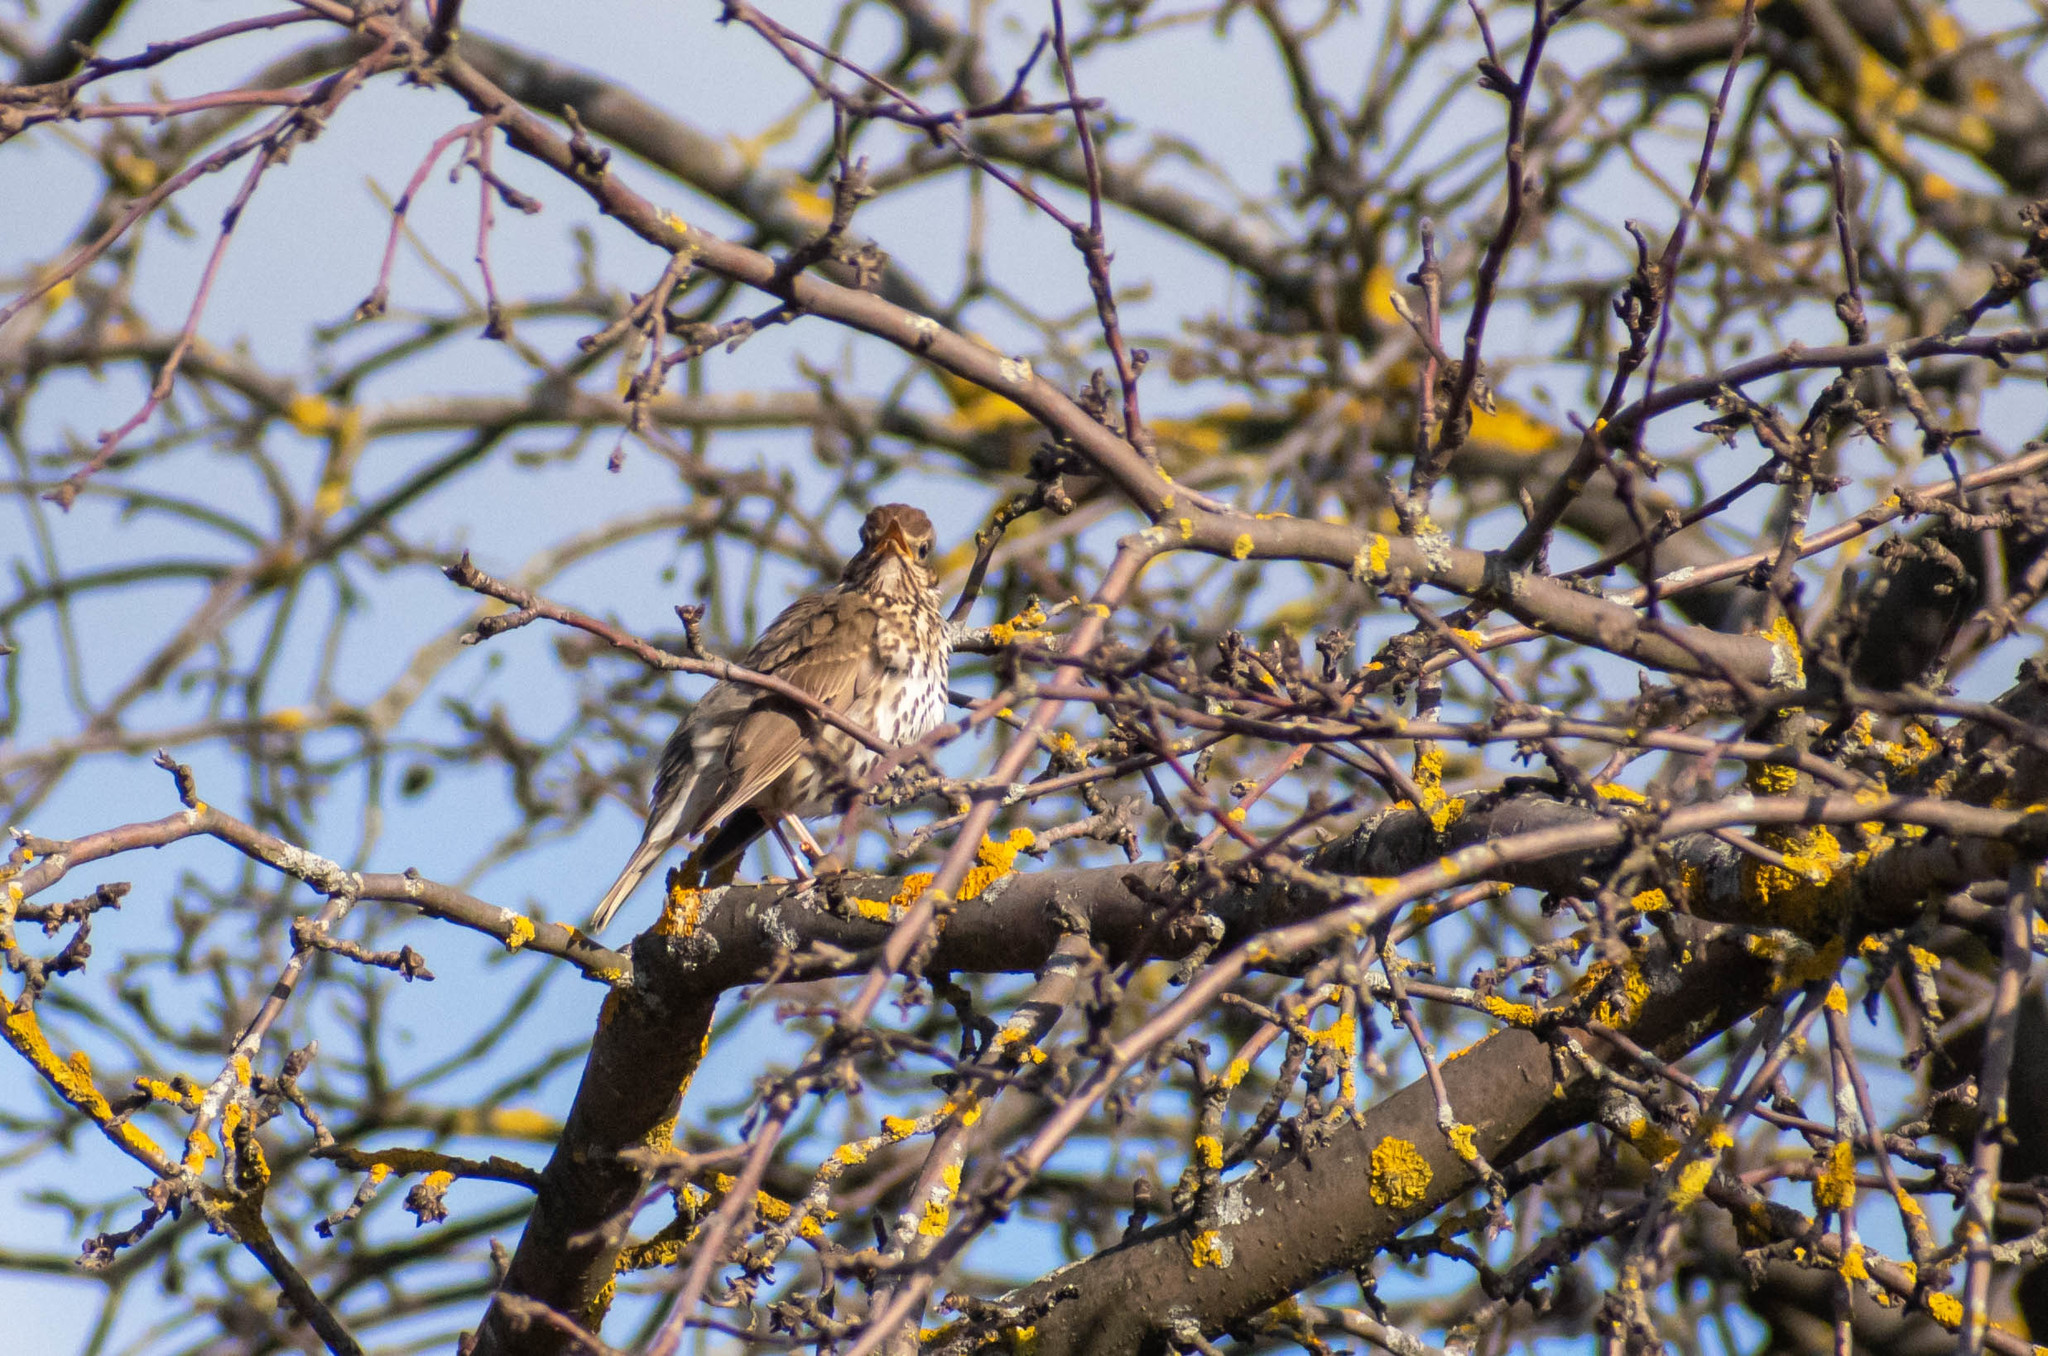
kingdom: Animalia
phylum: Chordata
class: Aves
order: Passeriformes
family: Turdidae
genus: Turdus
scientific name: Turdus philomelos
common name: Song thrush
